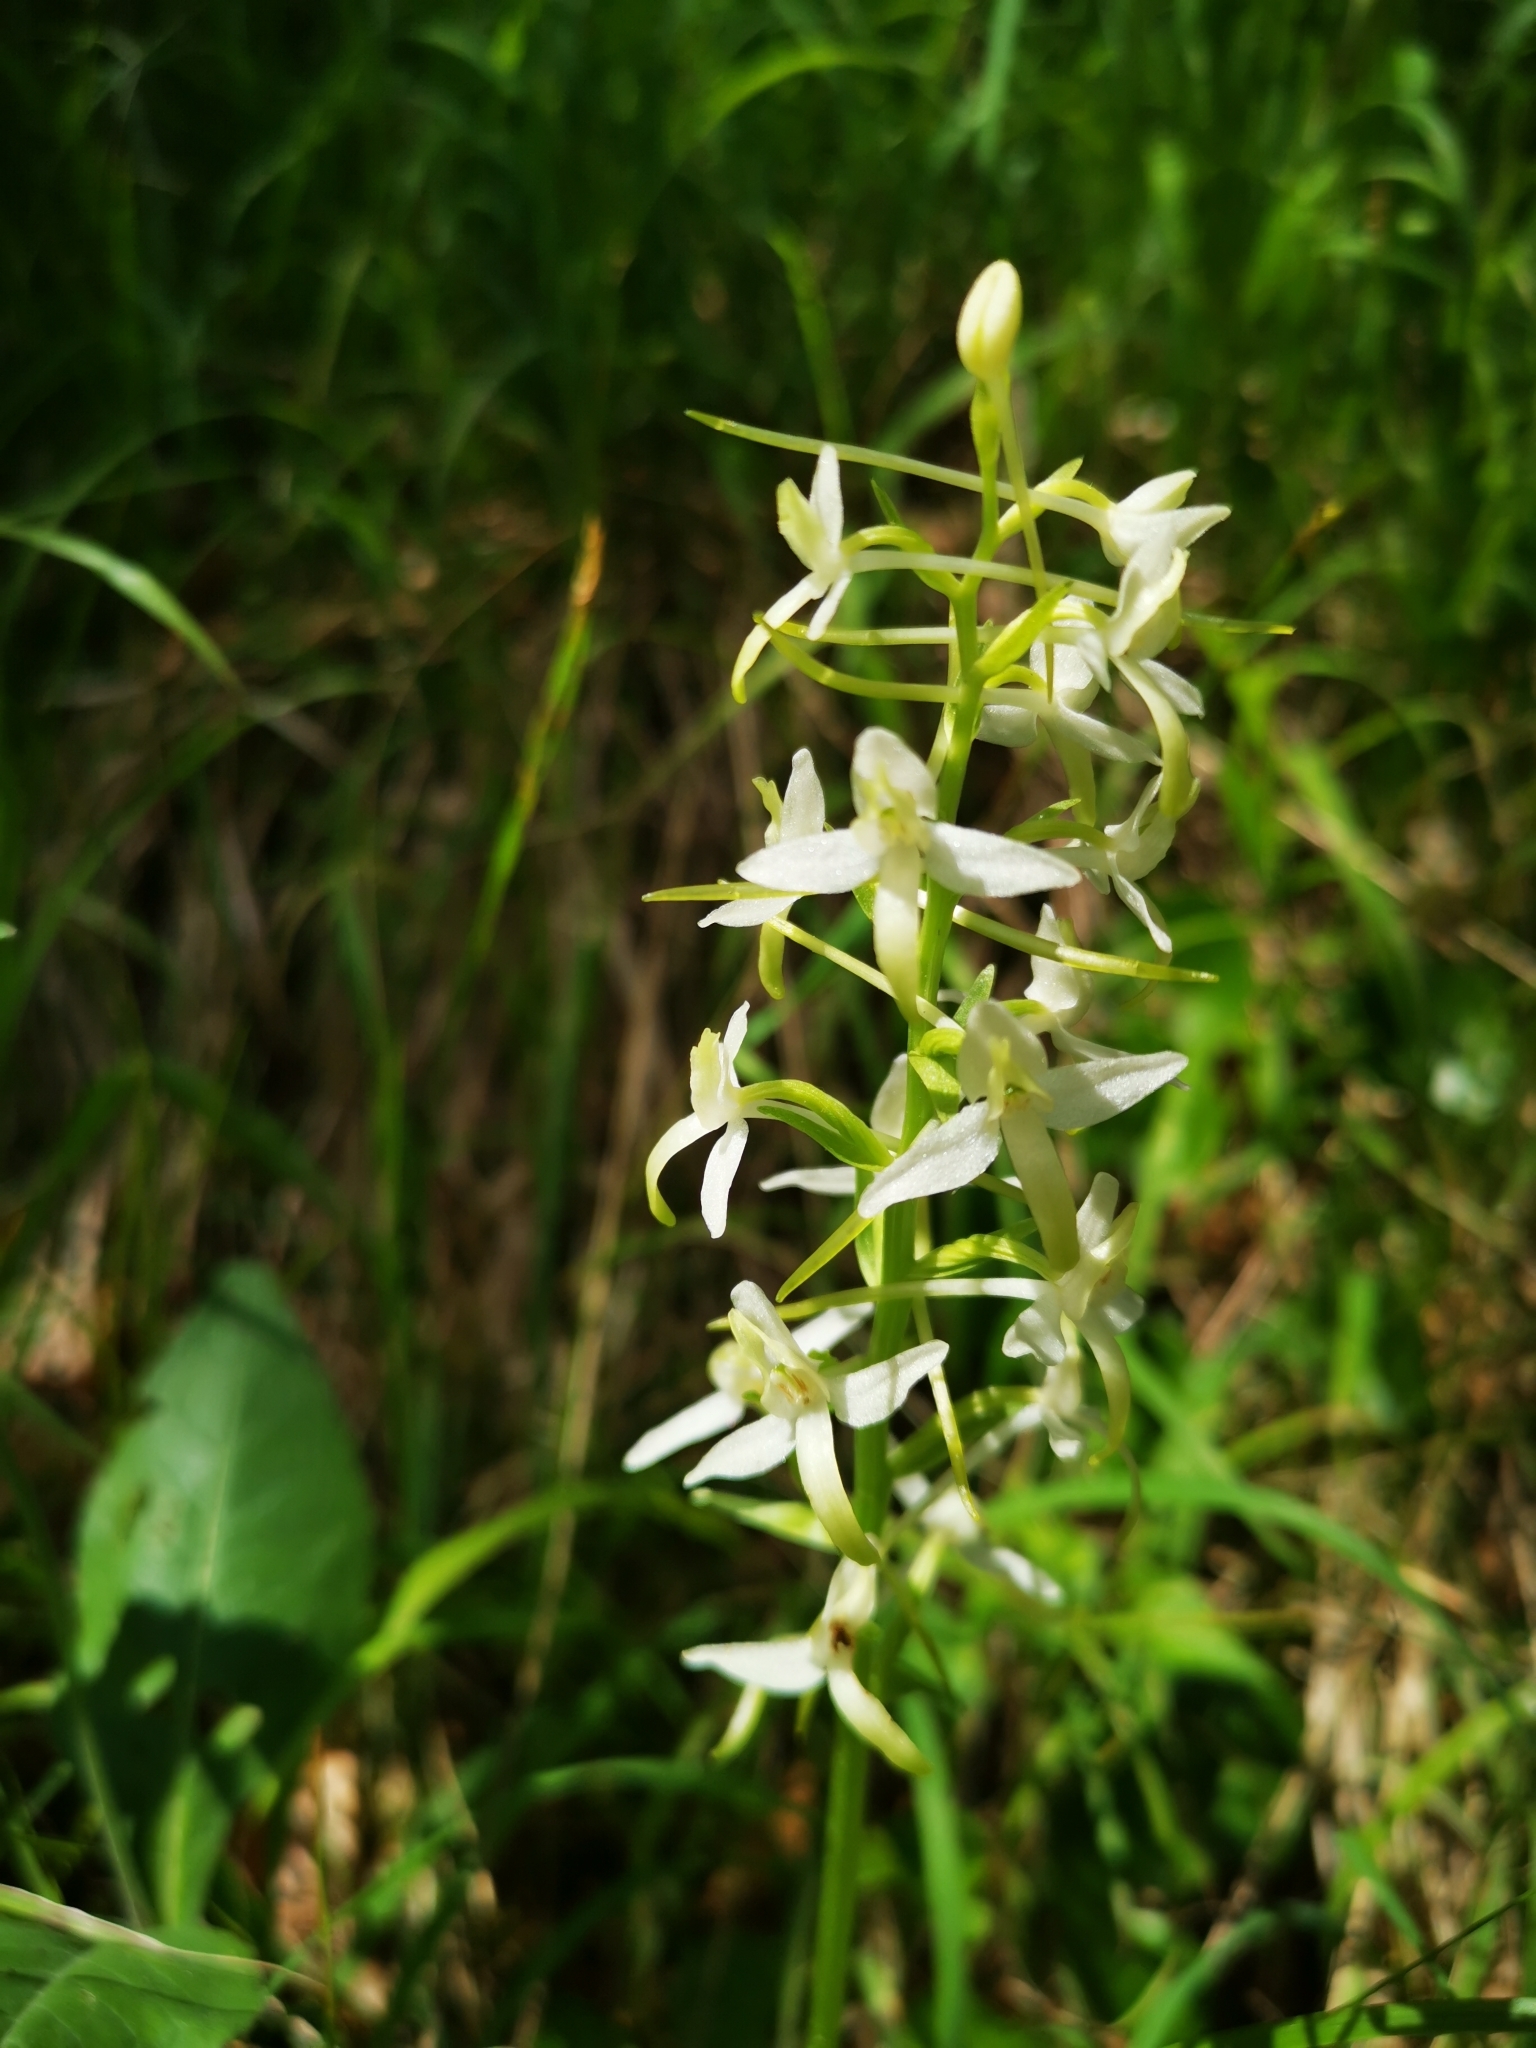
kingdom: Plantae
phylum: Tracheophyta
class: Liliopsida
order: Asparagales
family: Orchidaceae
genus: Platanthera
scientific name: Platanthera bifolia
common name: Lesser butterfly-orchid
